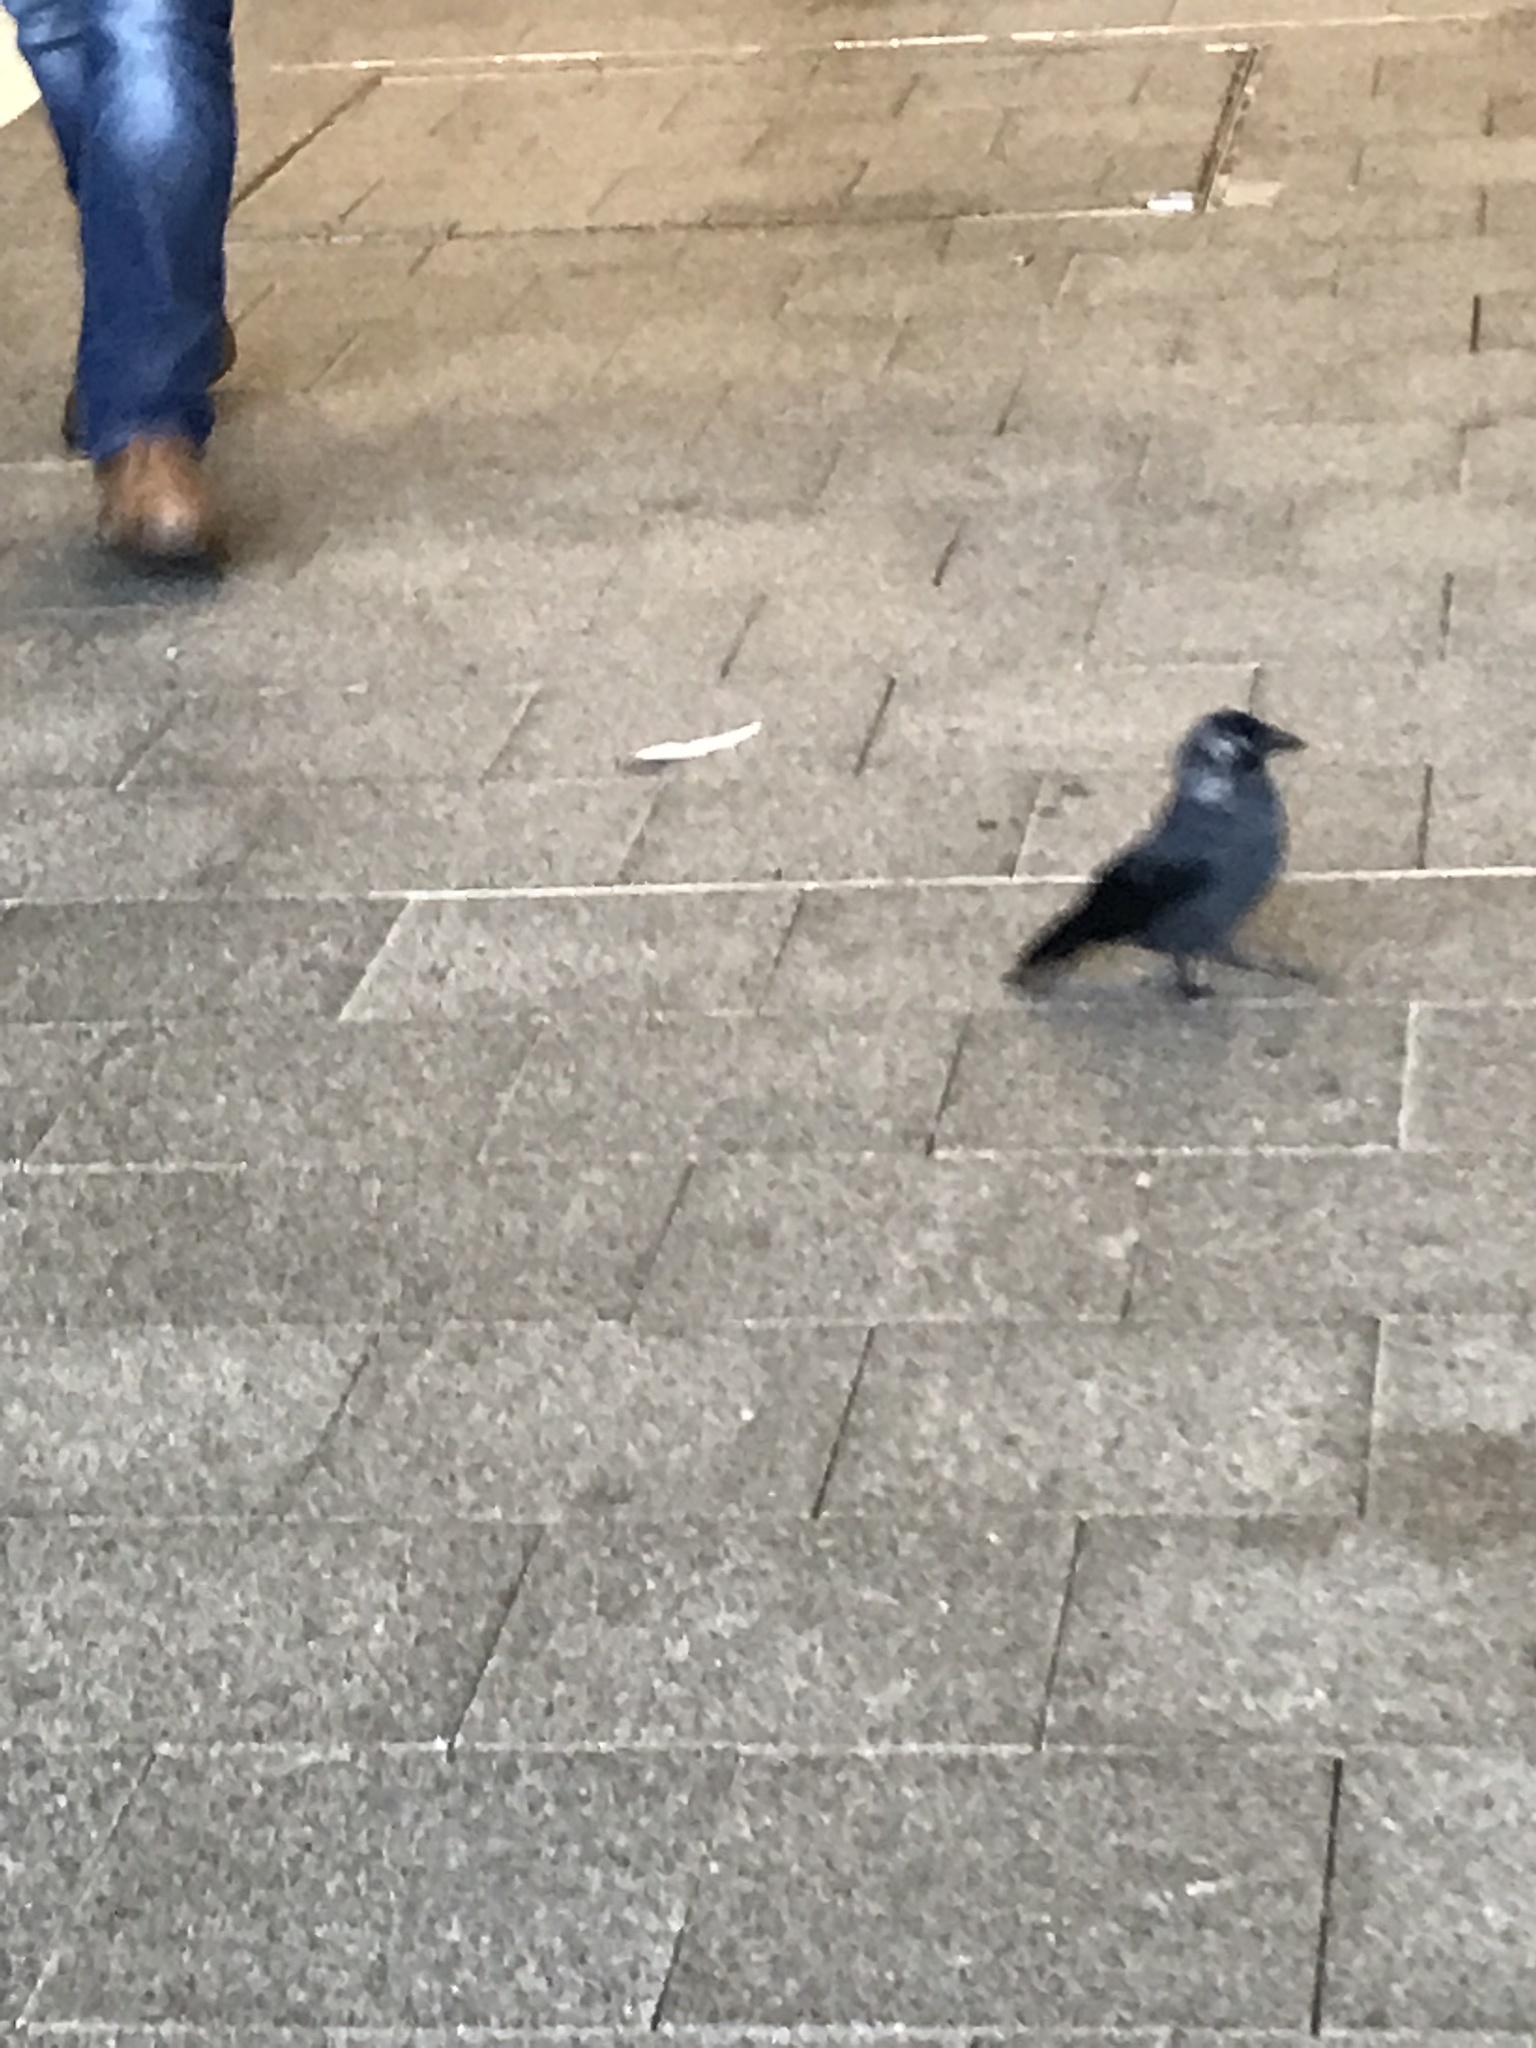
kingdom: Animalia
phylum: Chordata
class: Aves
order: Passeriformes
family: Corvidae
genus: Coloeus
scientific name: Coloeus monedula
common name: Western jackdaw
